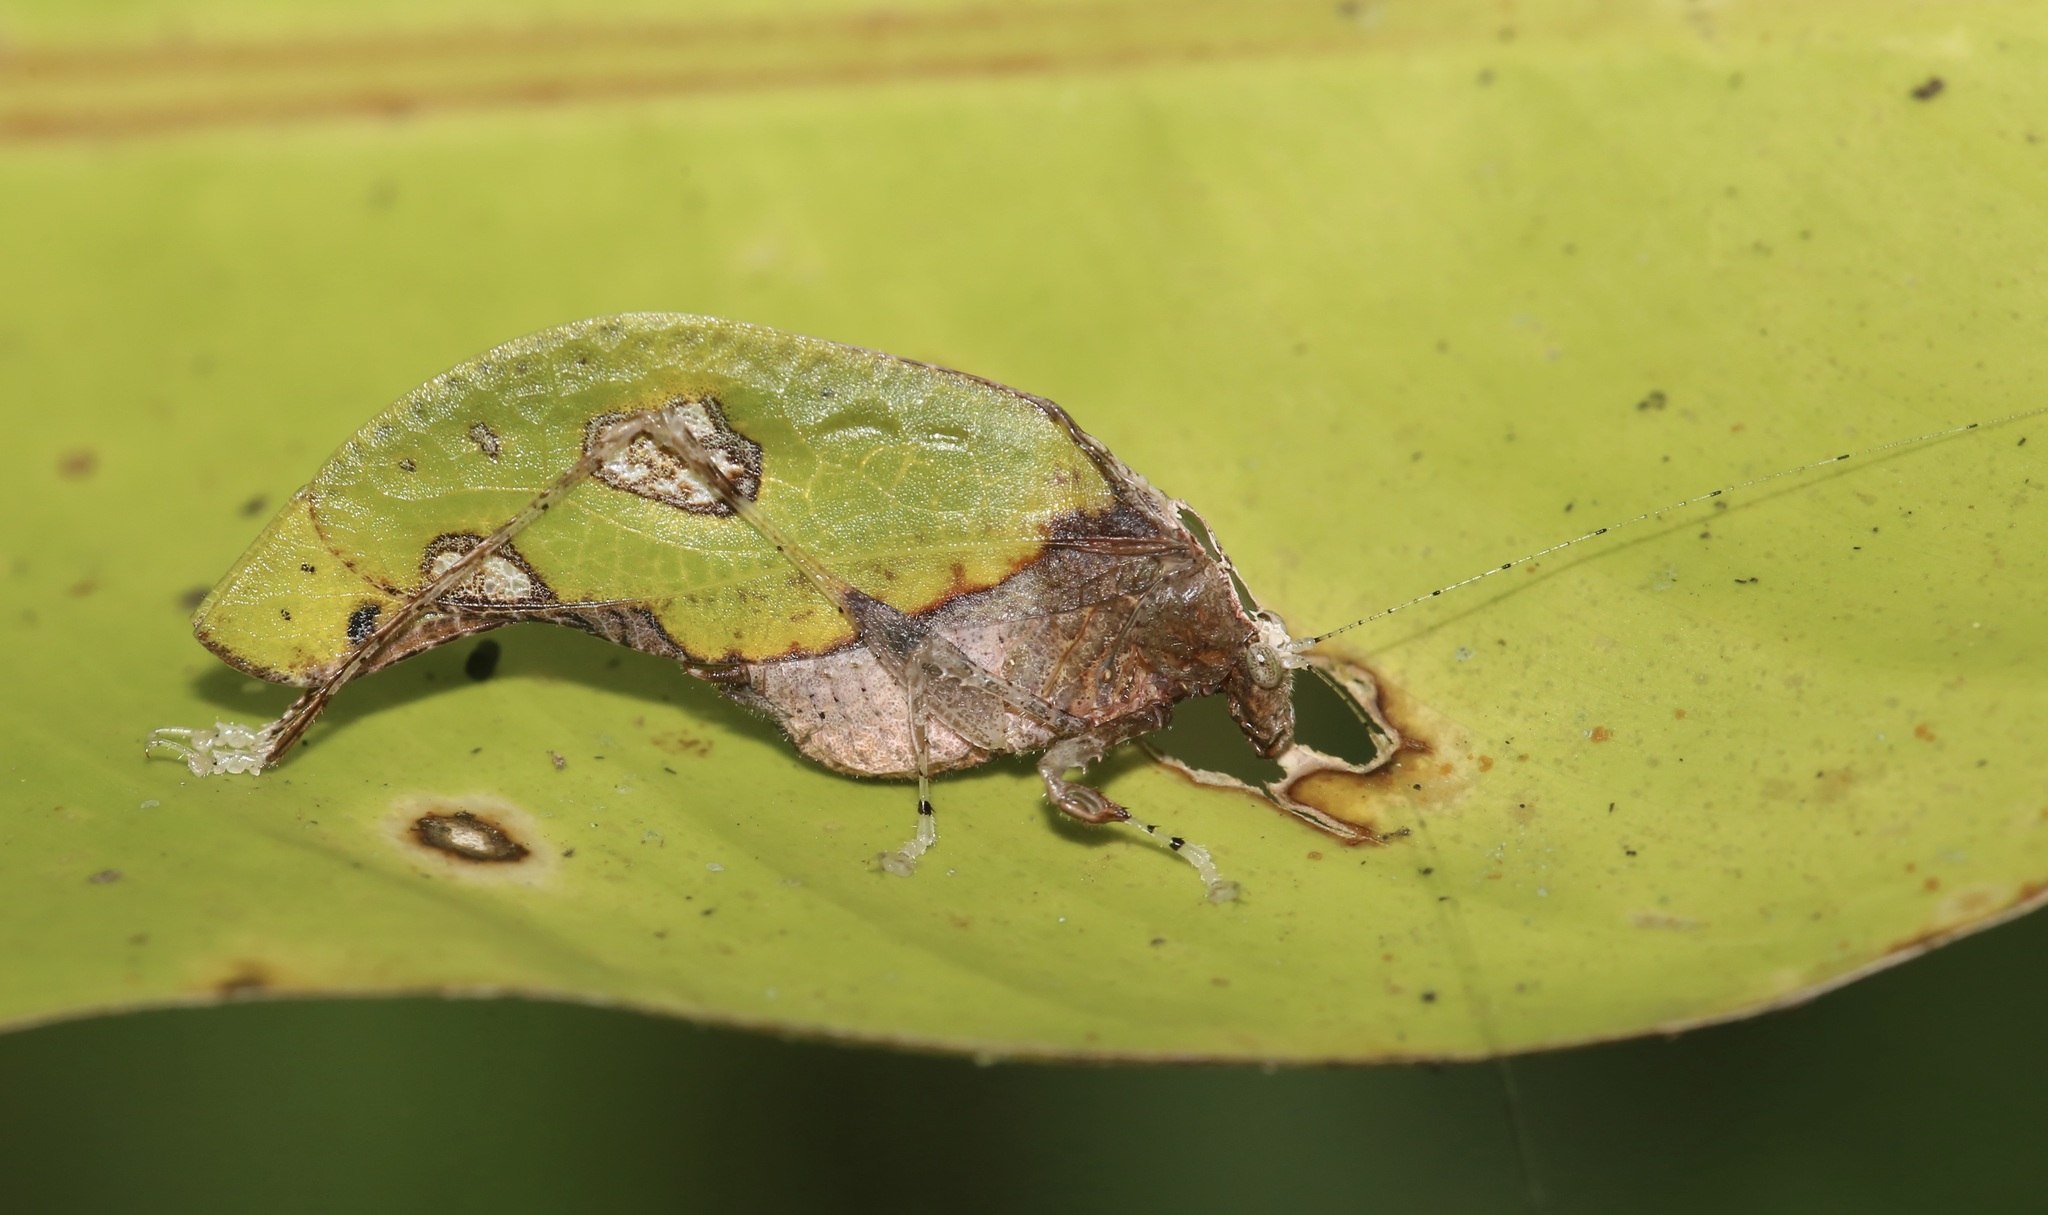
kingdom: Animalia
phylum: Arthropoda
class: Insecta
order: Orthoptera
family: Tettigoniidae
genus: Pycnopalpa
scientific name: Pycnopalpa bicordata
